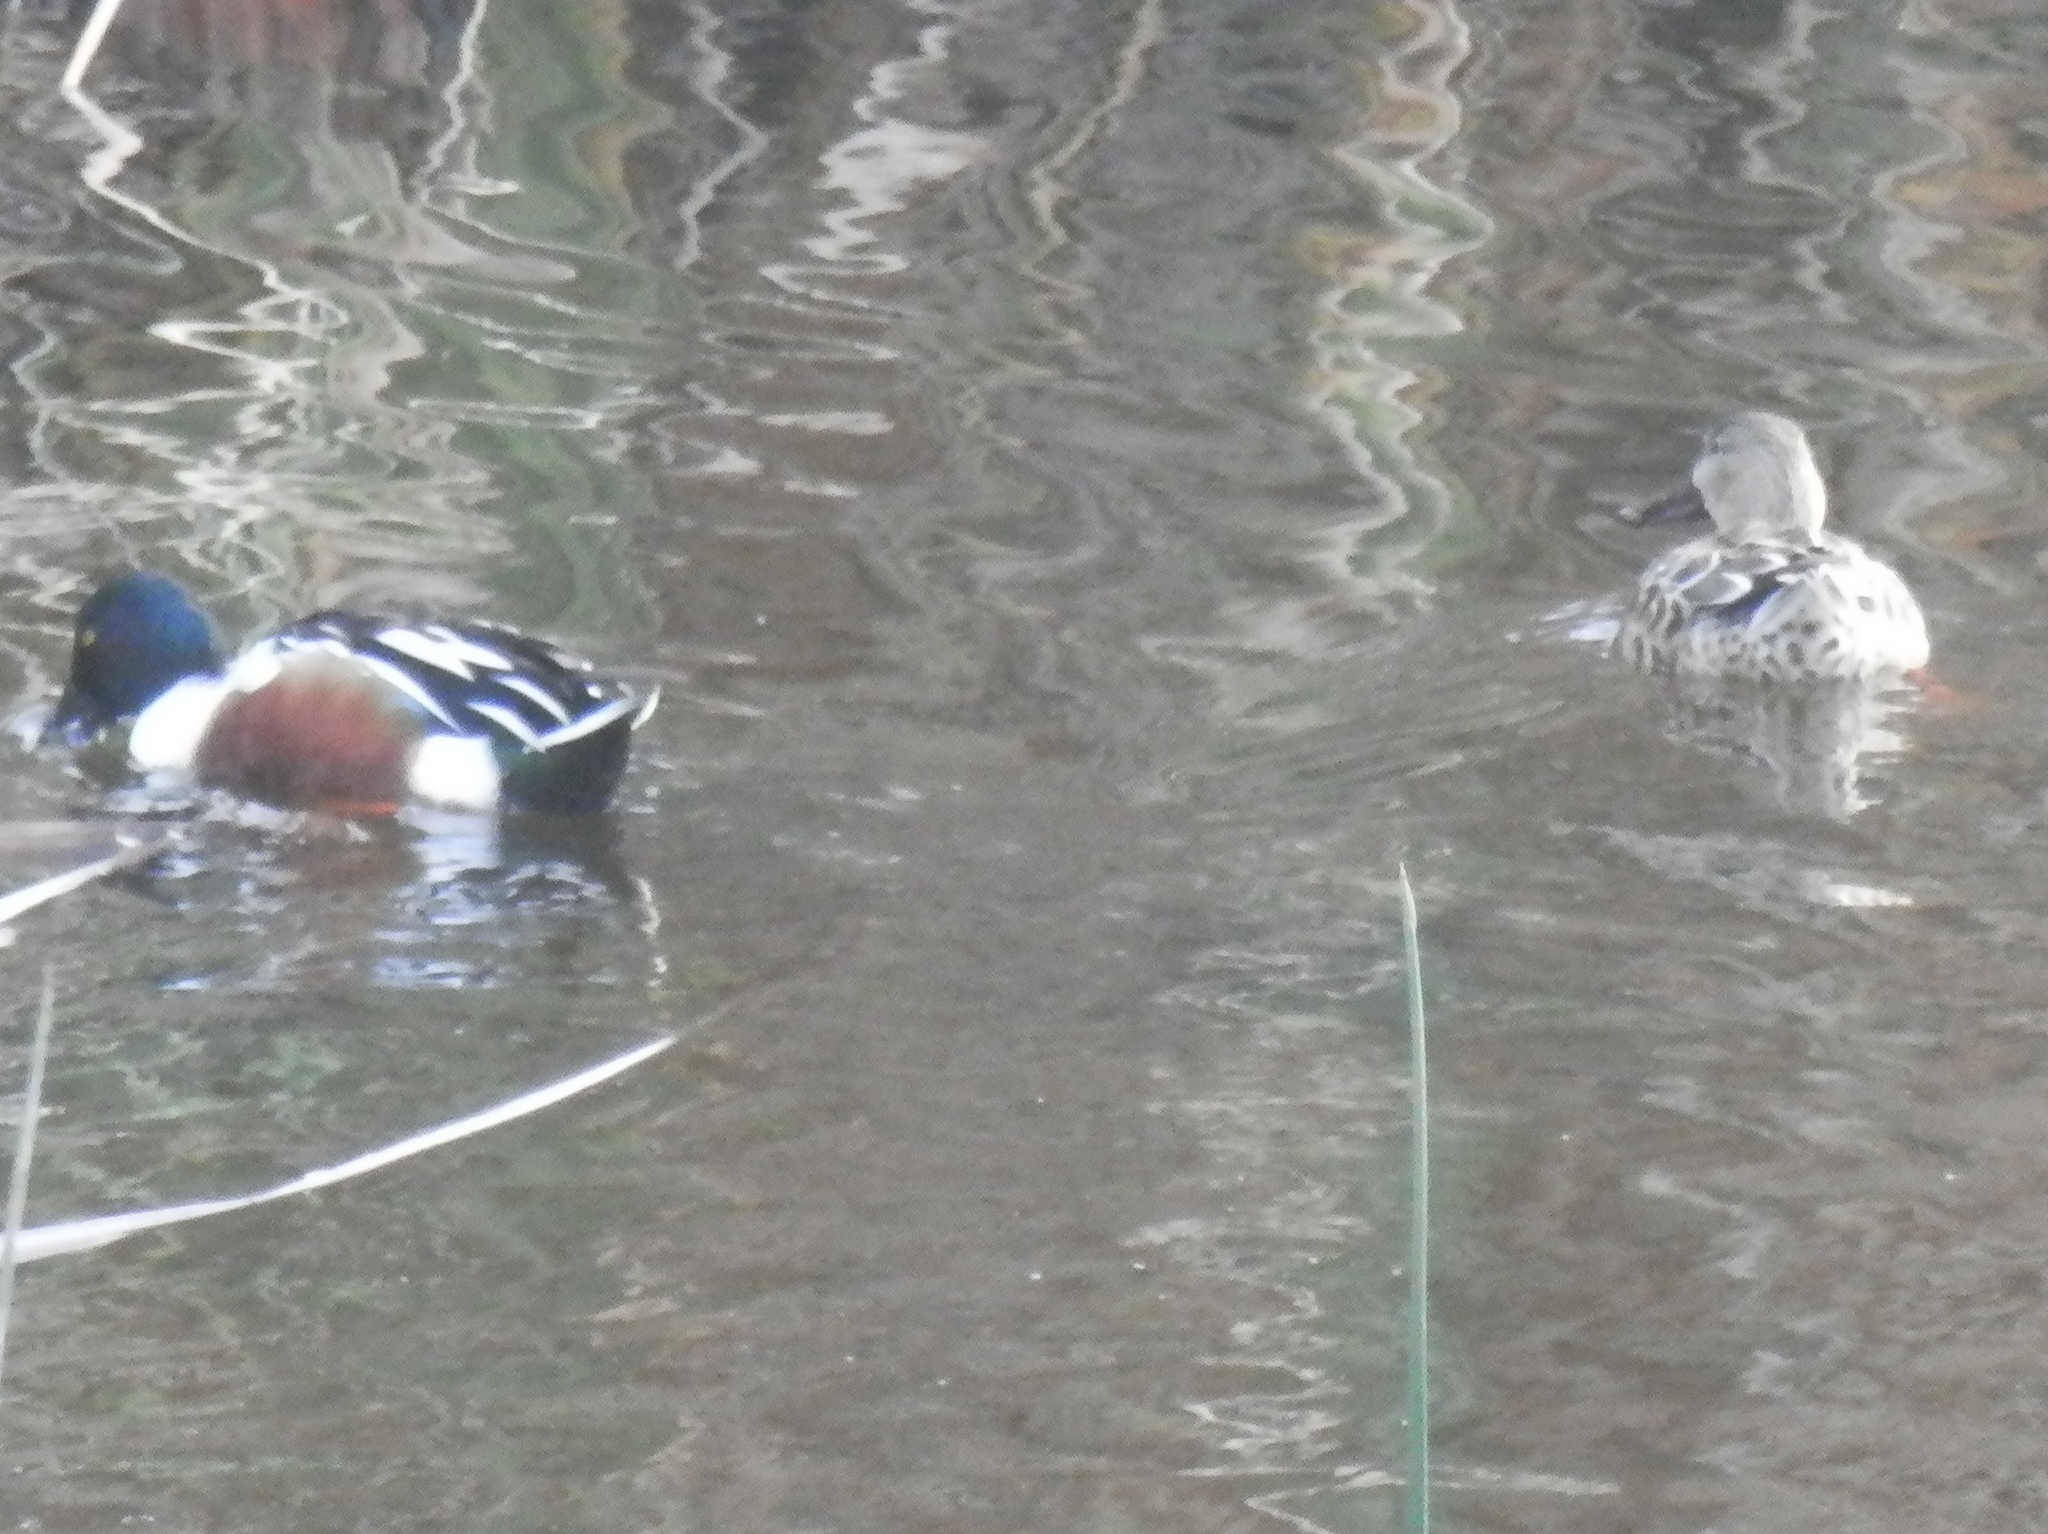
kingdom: Animalia
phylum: Chordata
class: Aves
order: Anseriformes
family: Anatidae
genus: Spatula
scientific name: Spatula clypeata
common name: Northern shoveler
